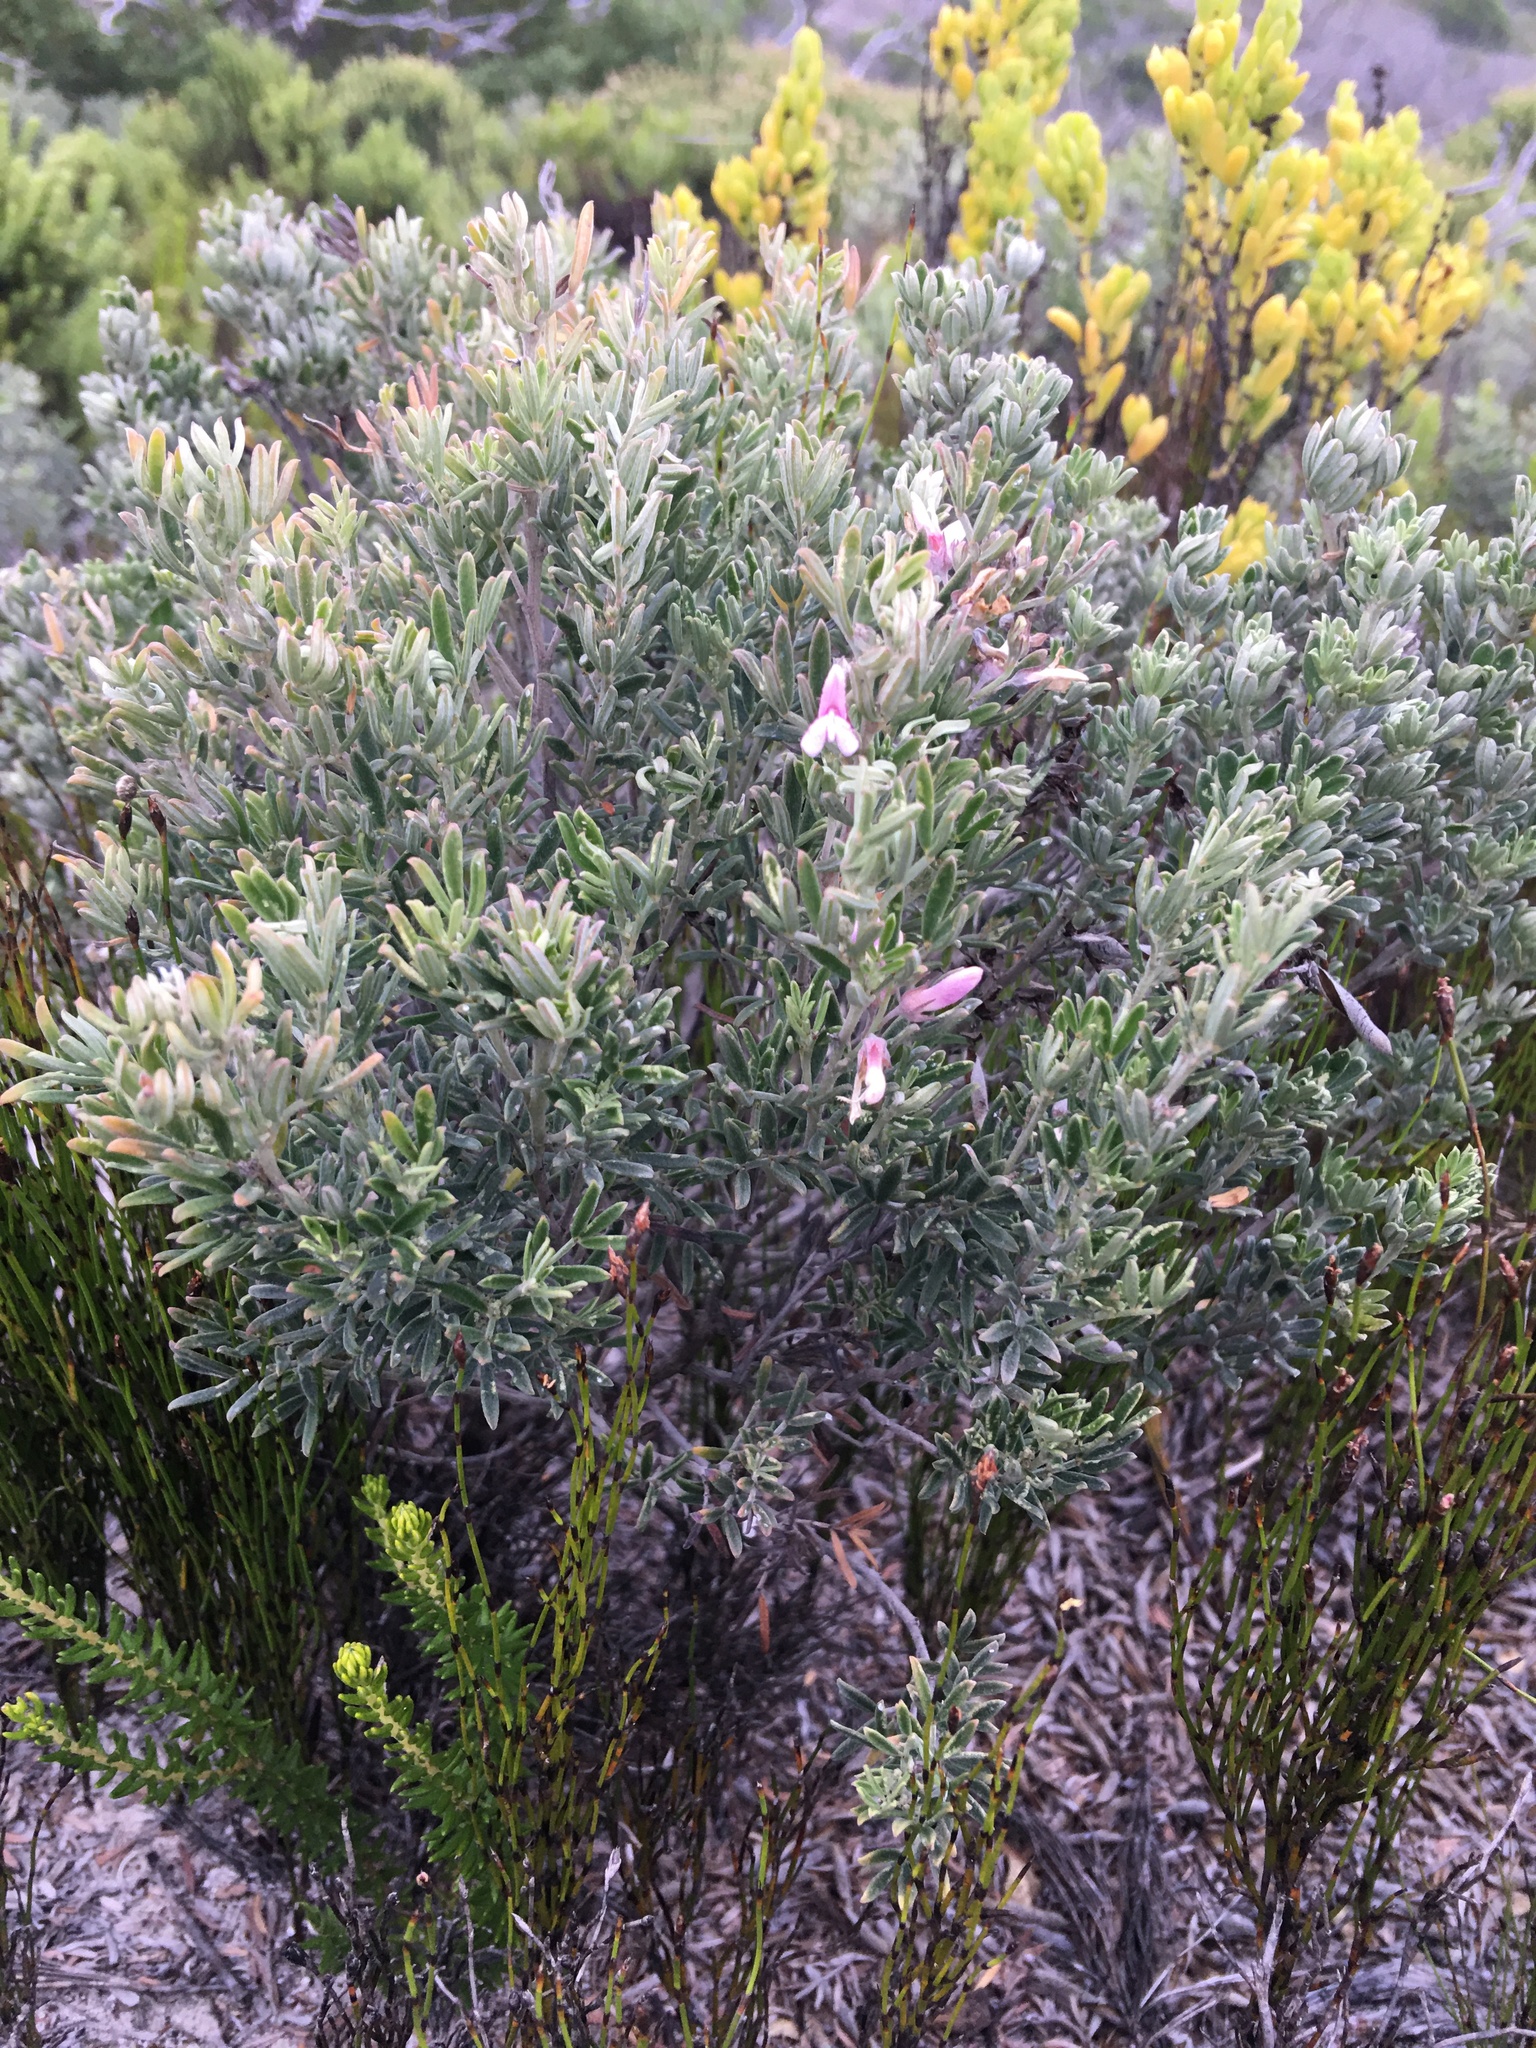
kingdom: Plantae
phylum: Tracheophyta
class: Magnoliopsida
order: Fabales
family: Fabaceae
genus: Indigofera
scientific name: Indigofera brachystachya
